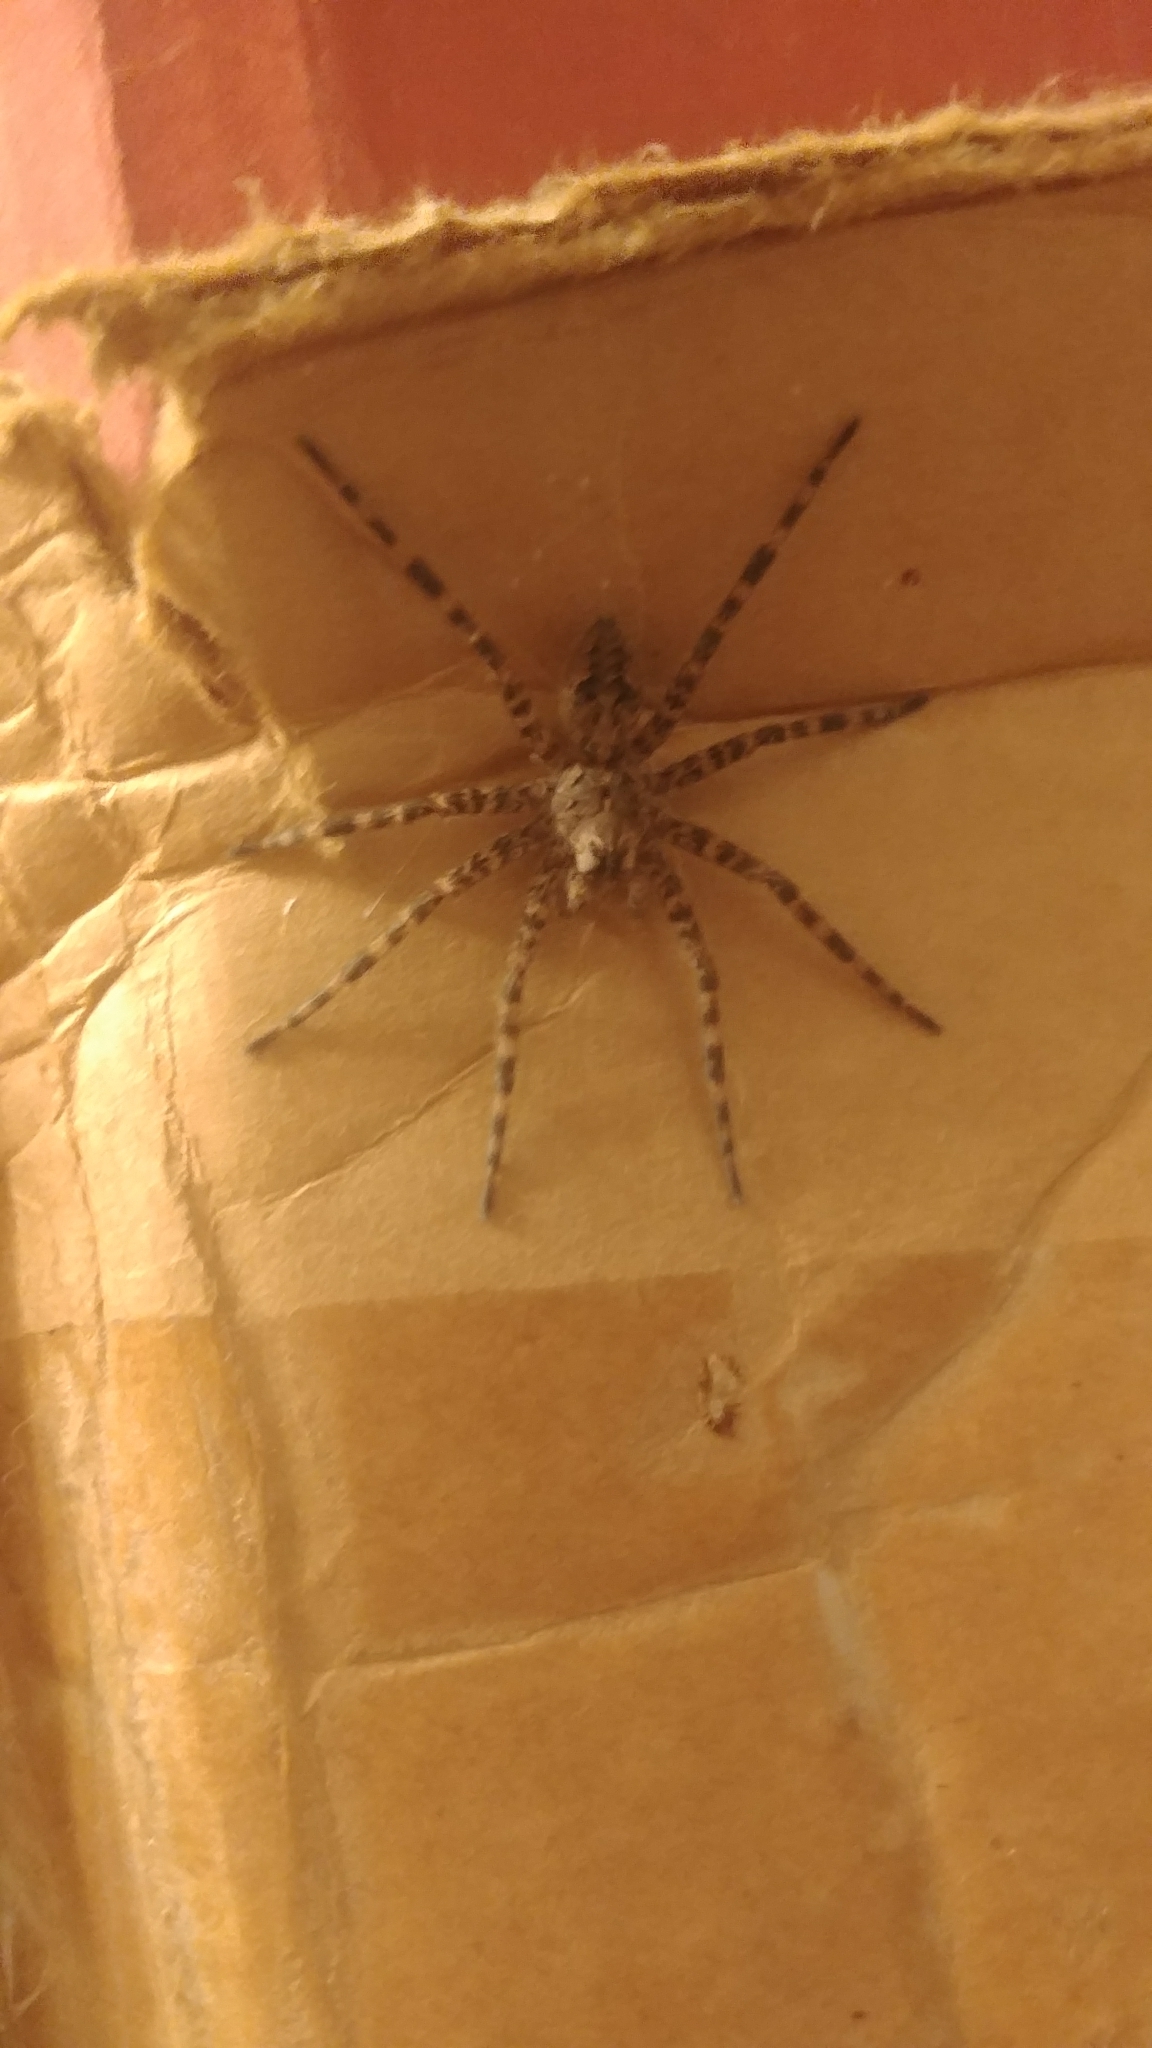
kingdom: Animalia
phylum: Arthropoda
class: Arachnida
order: Araneae
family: Pisauridae
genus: Dolomedes
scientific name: Dolomedes tenebrosus
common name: Dark fishing spider
